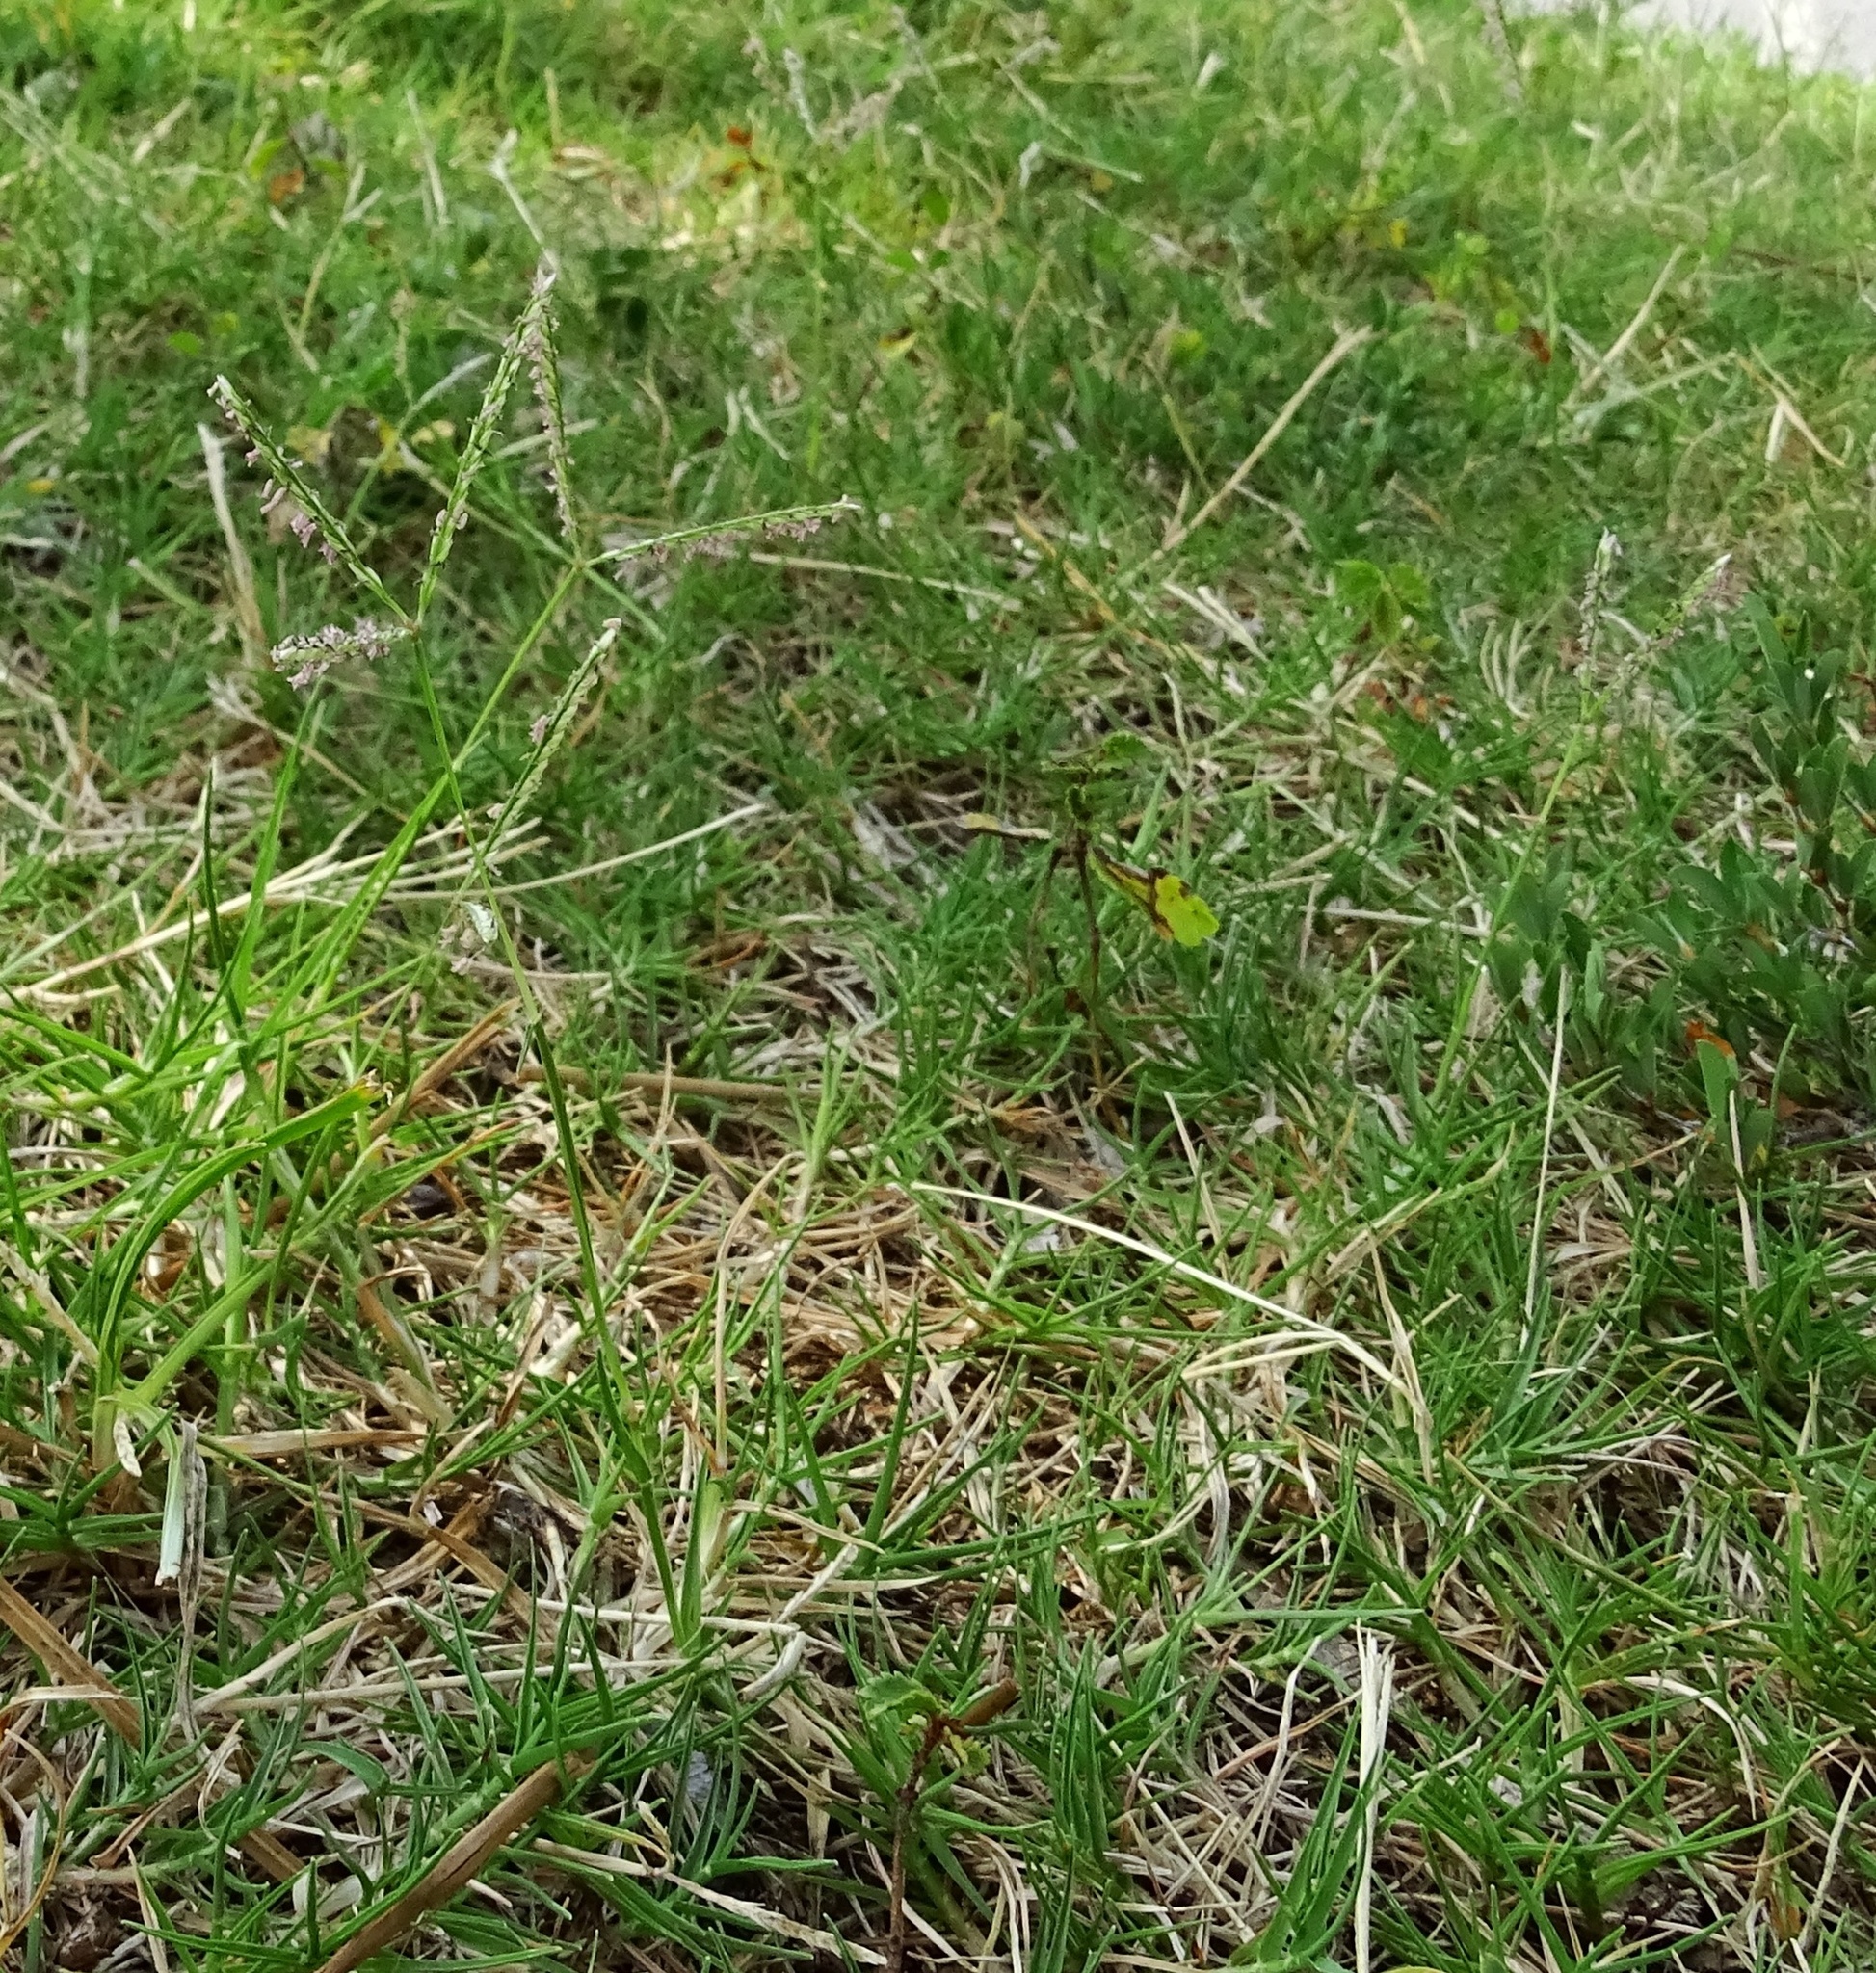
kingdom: Plantae
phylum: Tracheophyta
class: Liliopsida
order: Poales
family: Poaceae
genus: Cynodon
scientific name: Cynodon dactylon
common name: Bermuda grass
